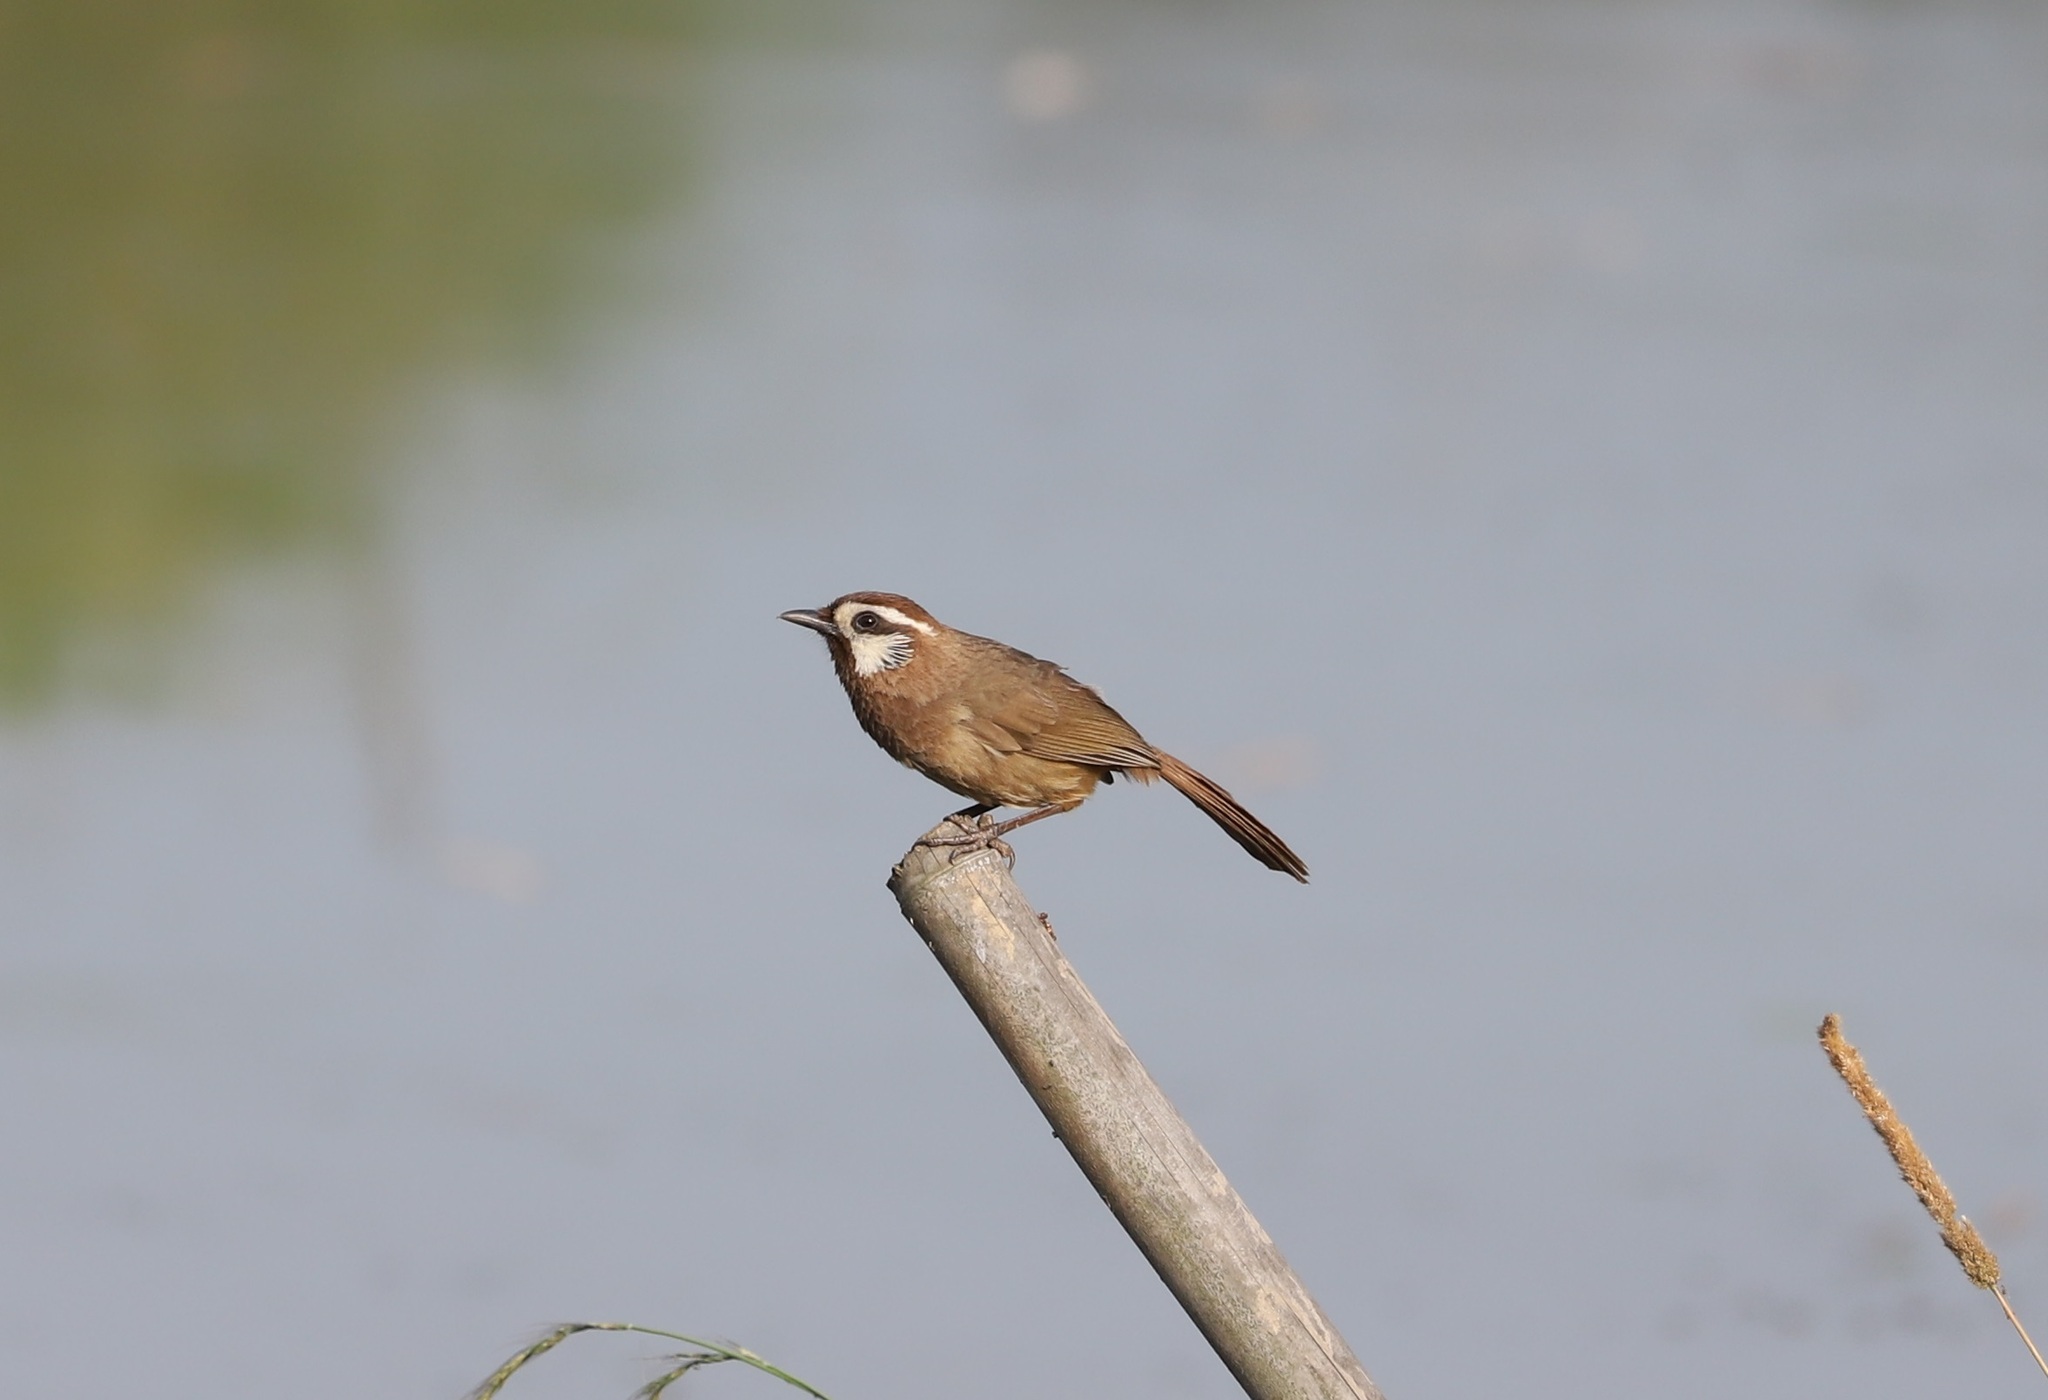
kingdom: Animalia
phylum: Chordata
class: Aves
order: Passeriformes
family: Leiothrichidae
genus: Pterorhinus
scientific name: Pterorhinus sannio
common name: White-browed laughingthrush
